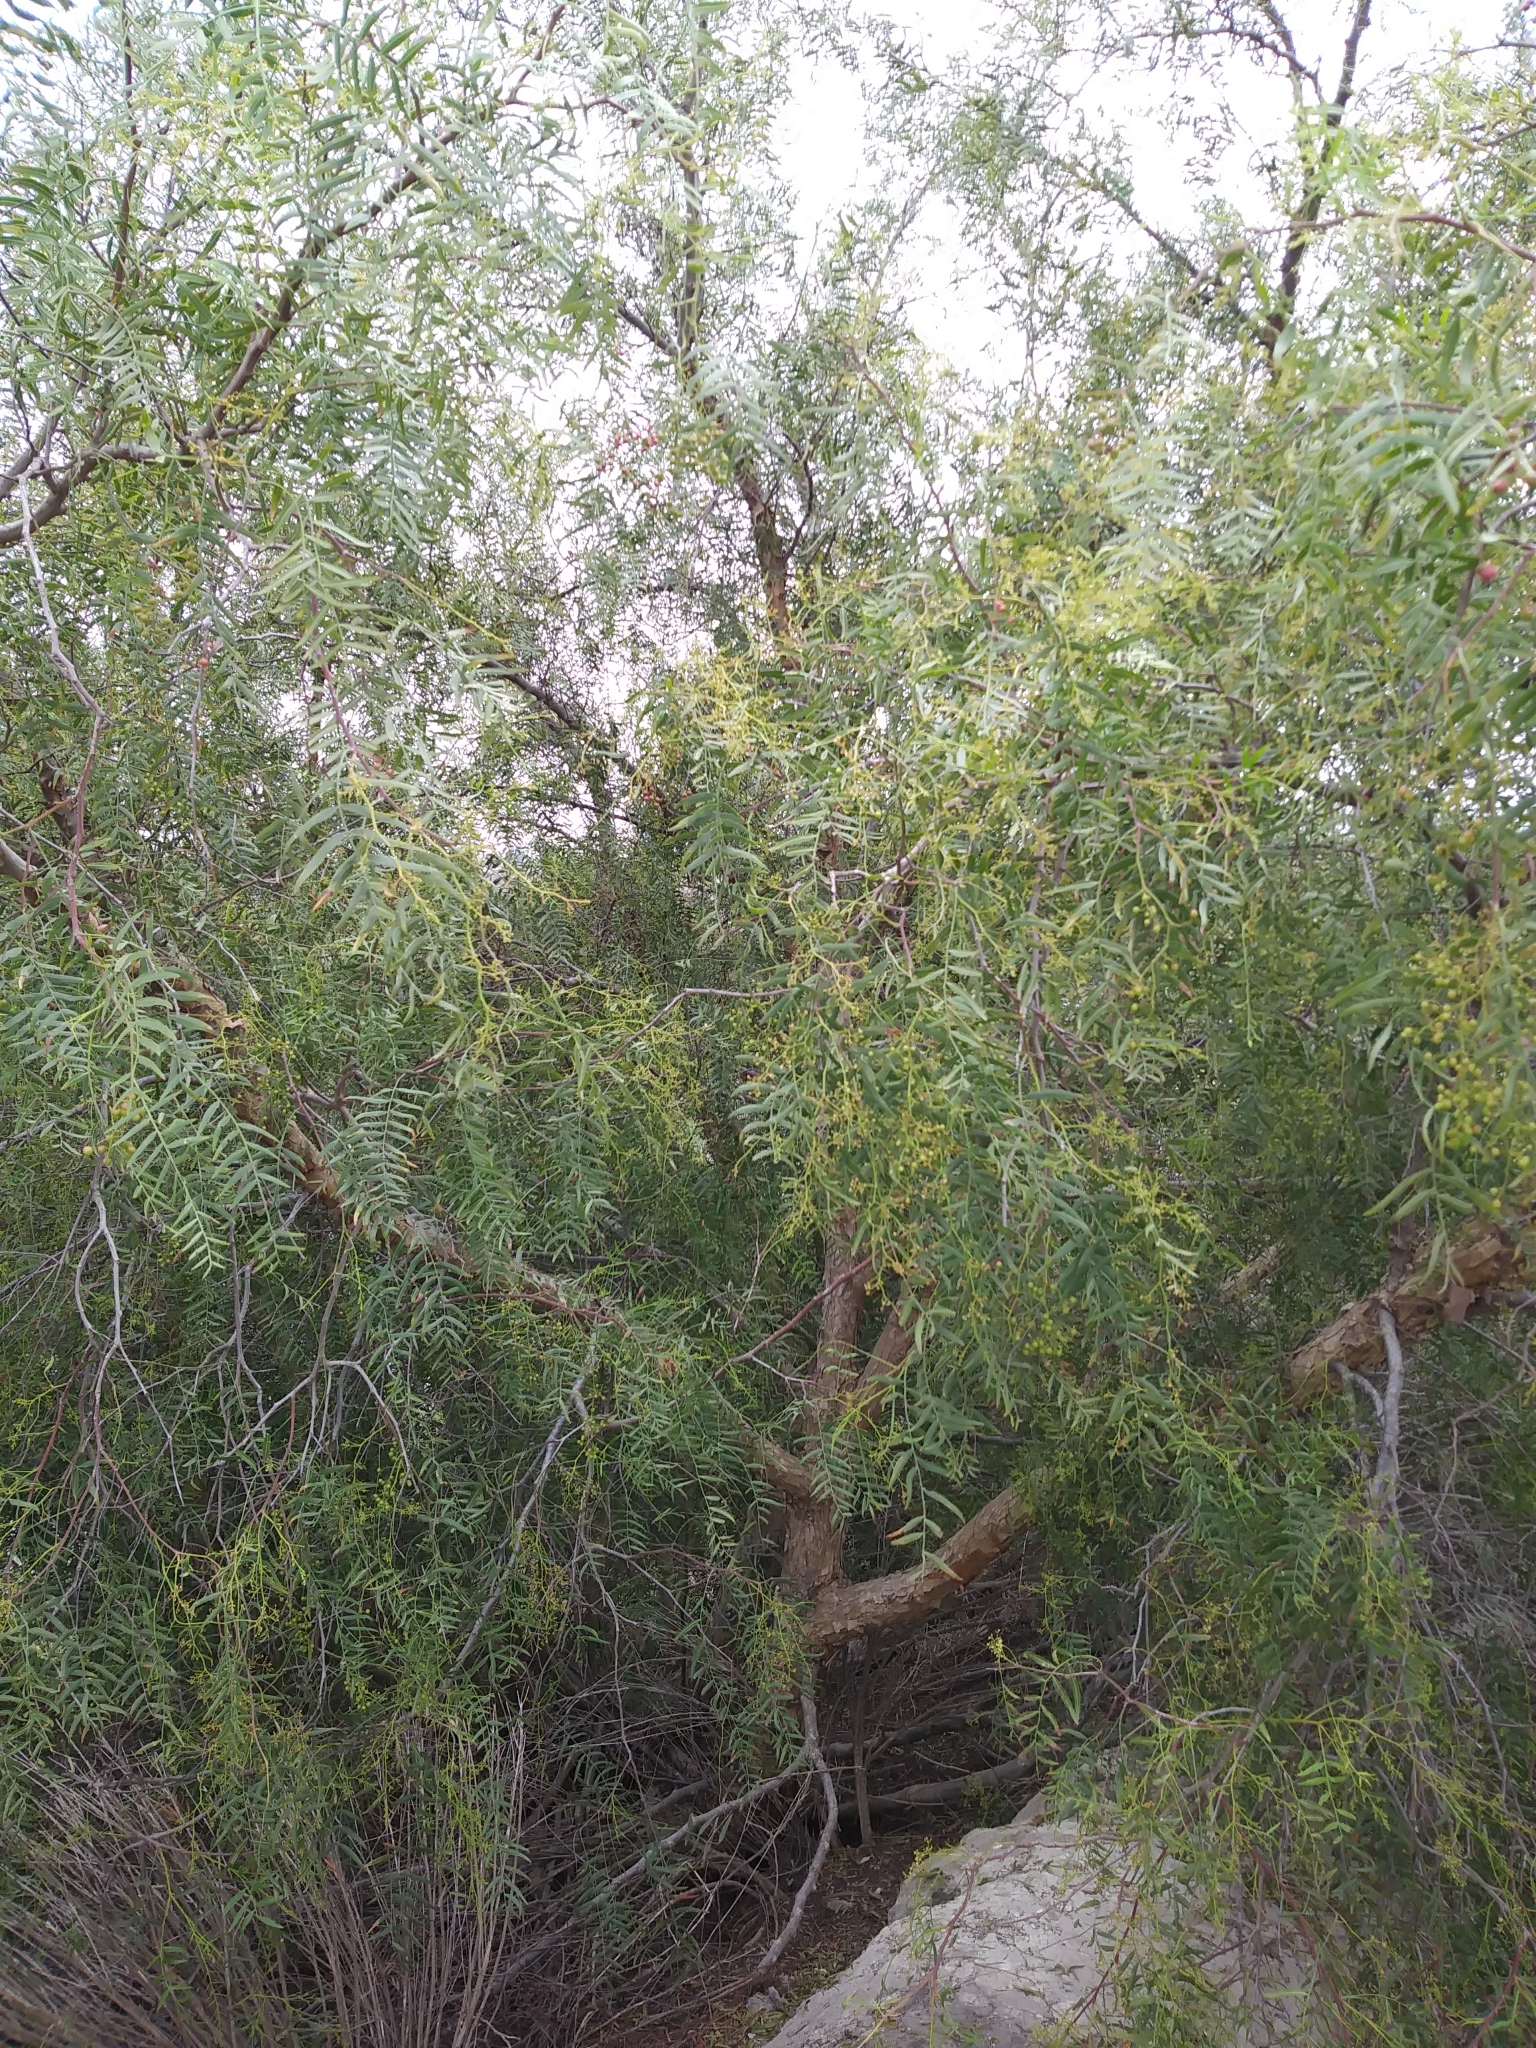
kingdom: Plantae
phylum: Tracheophyta
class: Magnoliopsida
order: Sapindales
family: Anacardiaceae
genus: Schinus
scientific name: Schinus molle
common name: Peruvian peppertree
